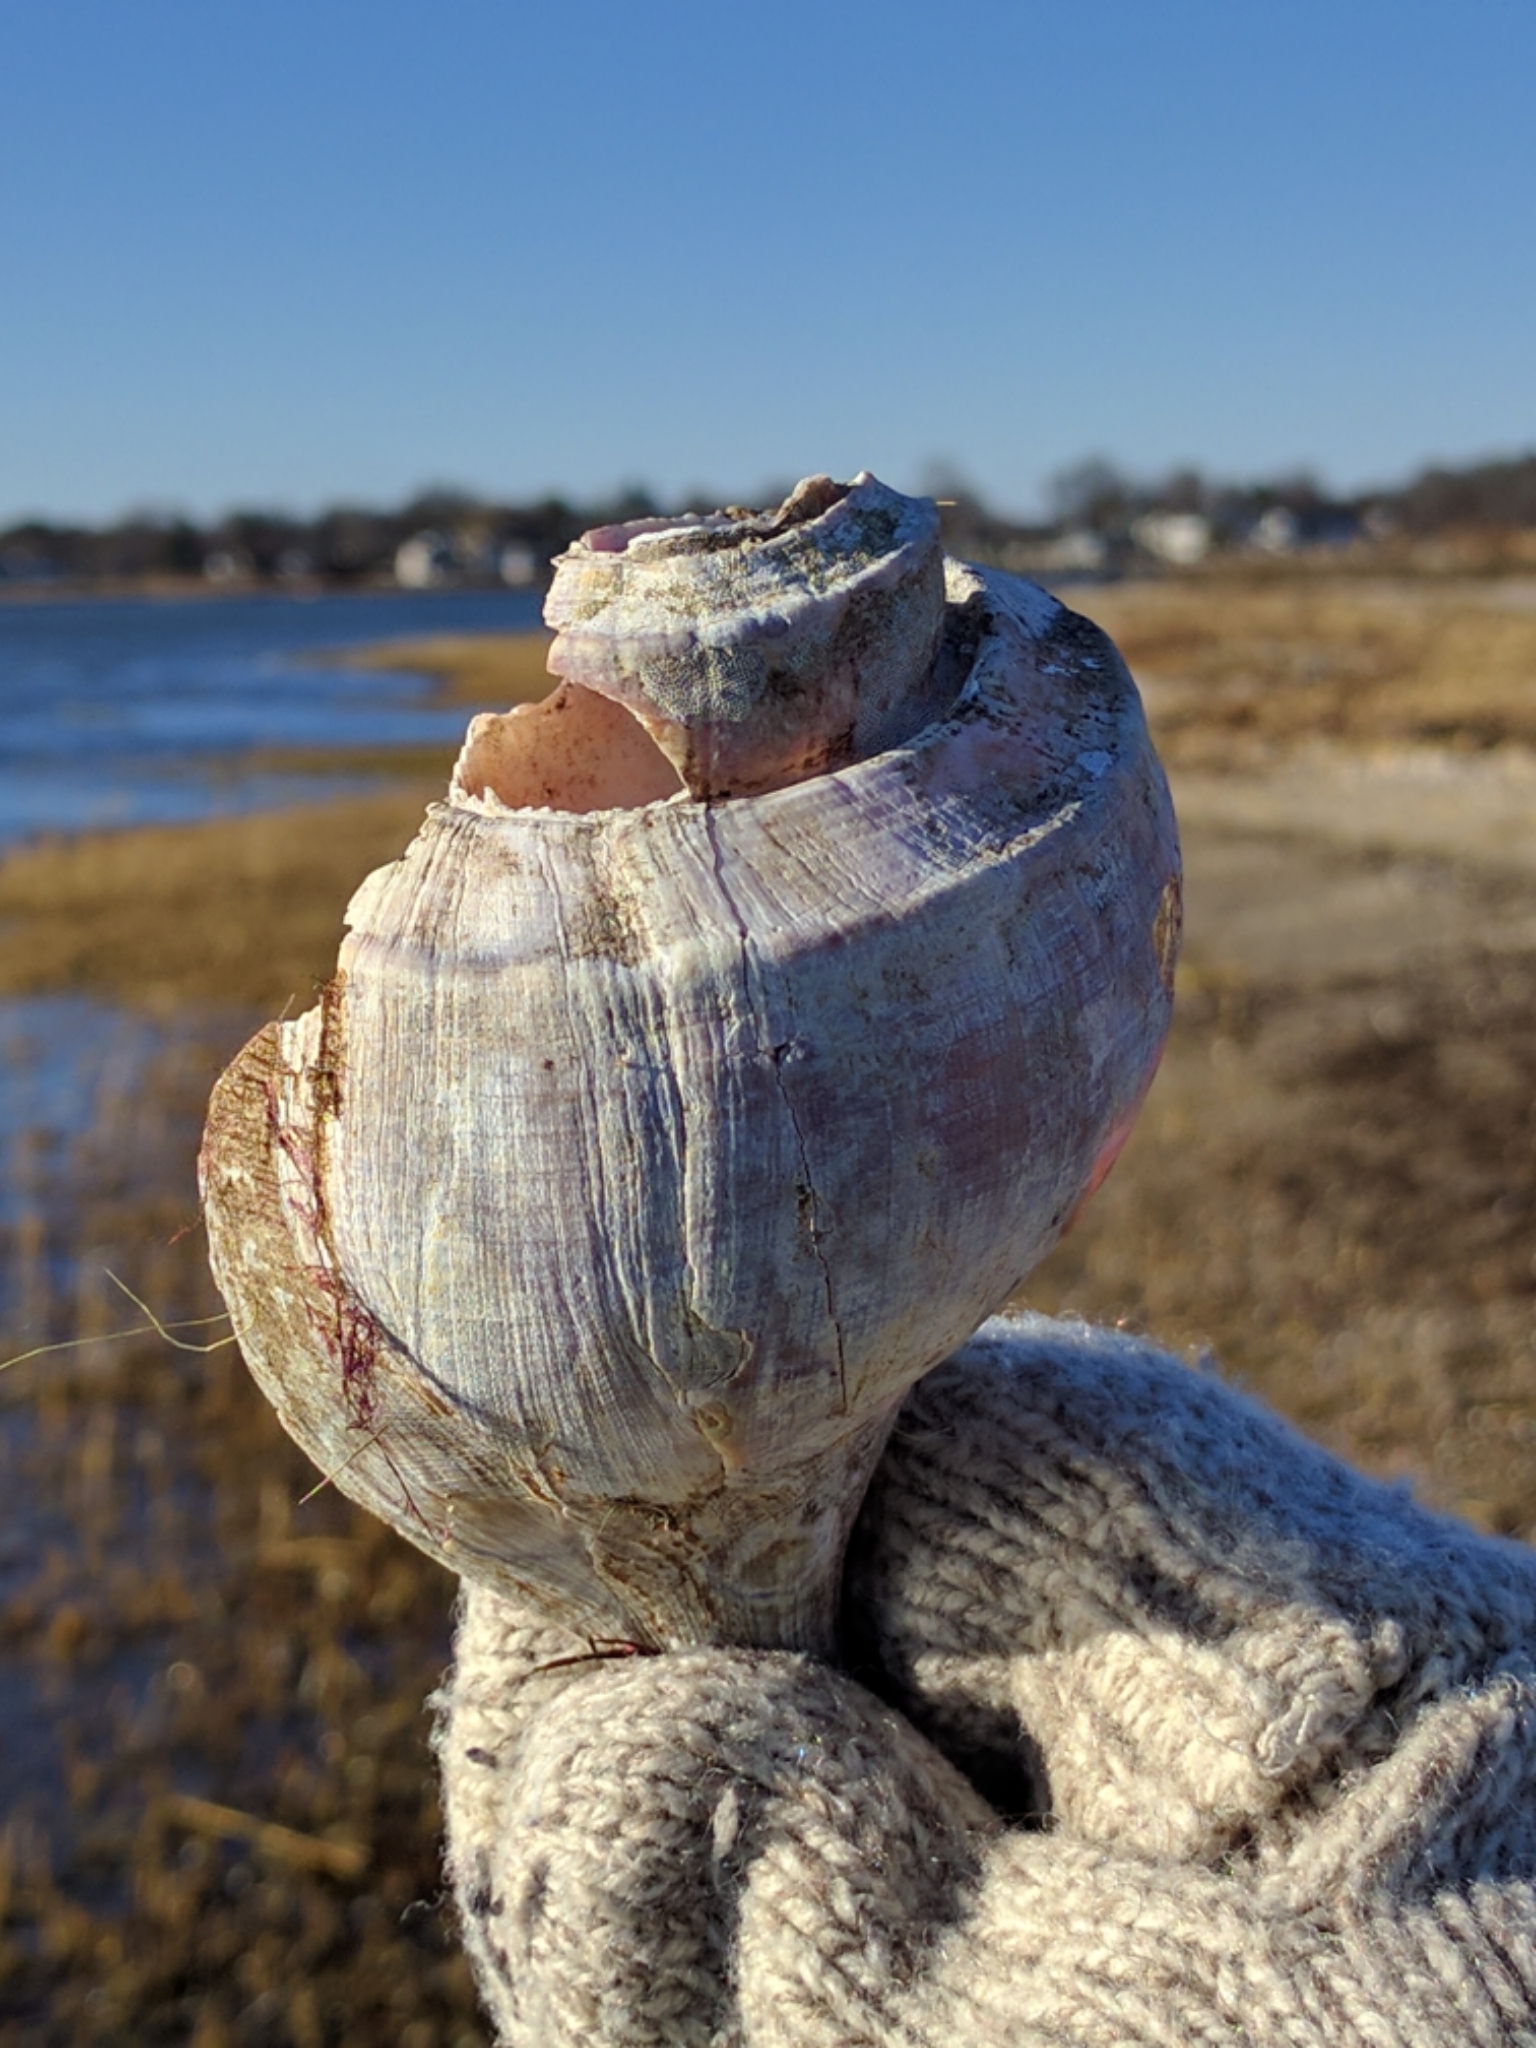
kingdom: Animalia
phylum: Mollusca
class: Gastropoda
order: Neogastropoda
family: Busyconidae
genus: Busycotypus
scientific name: Busycotypus canaliculatus
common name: Channeled whelk
